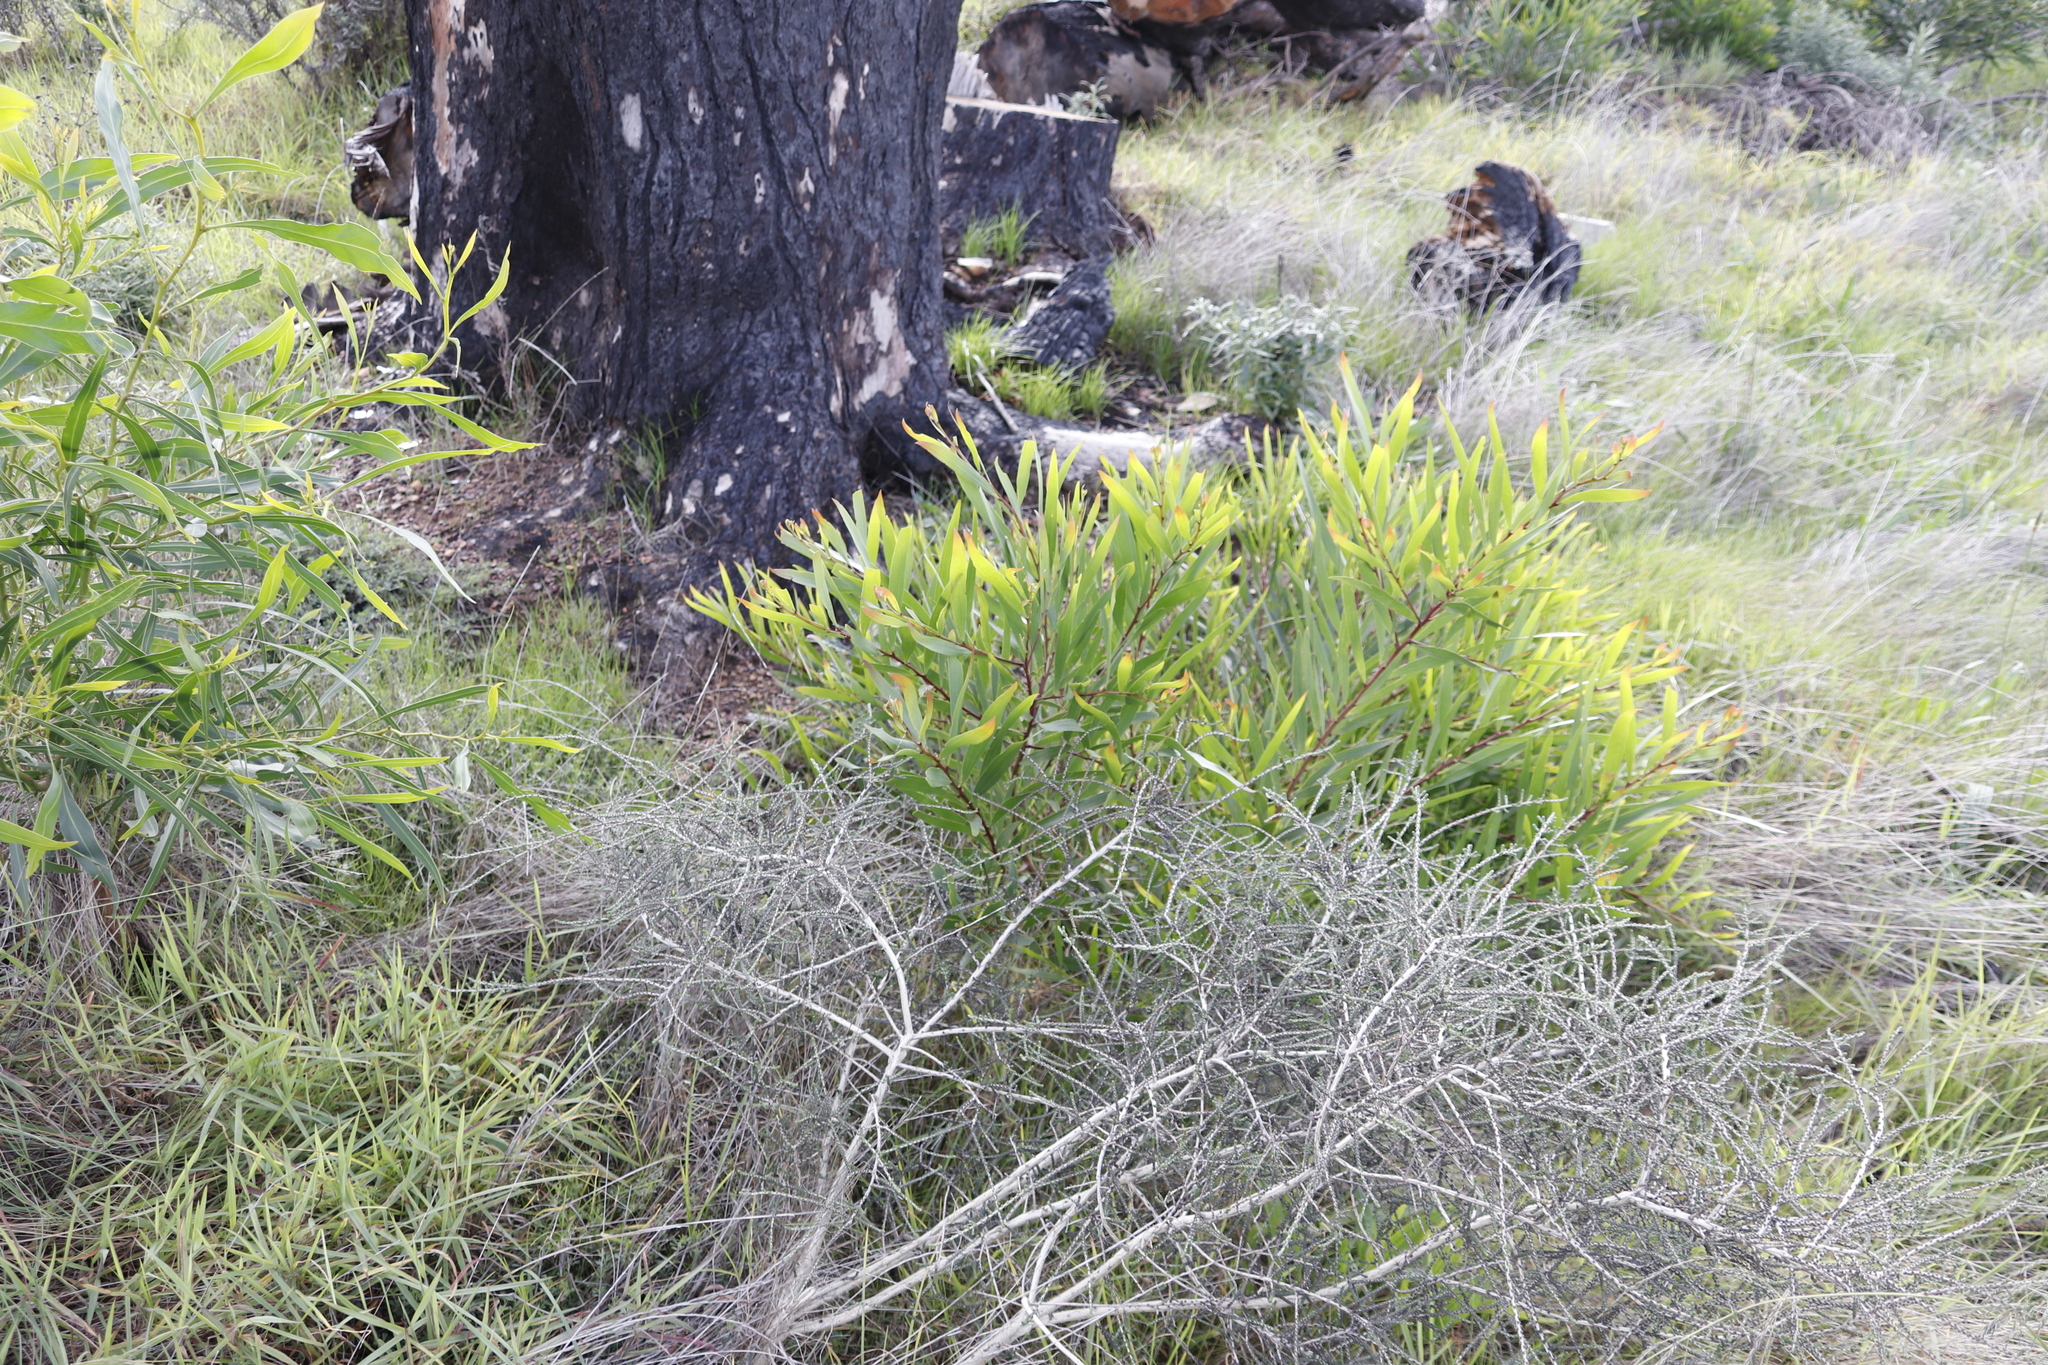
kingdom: Plantae
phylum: Tracheophyta
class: Magnoliopsida
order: Fabales
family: Fabaceae
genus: Acacia
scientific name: Acacia longifolia
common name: Sydney golden wattle
